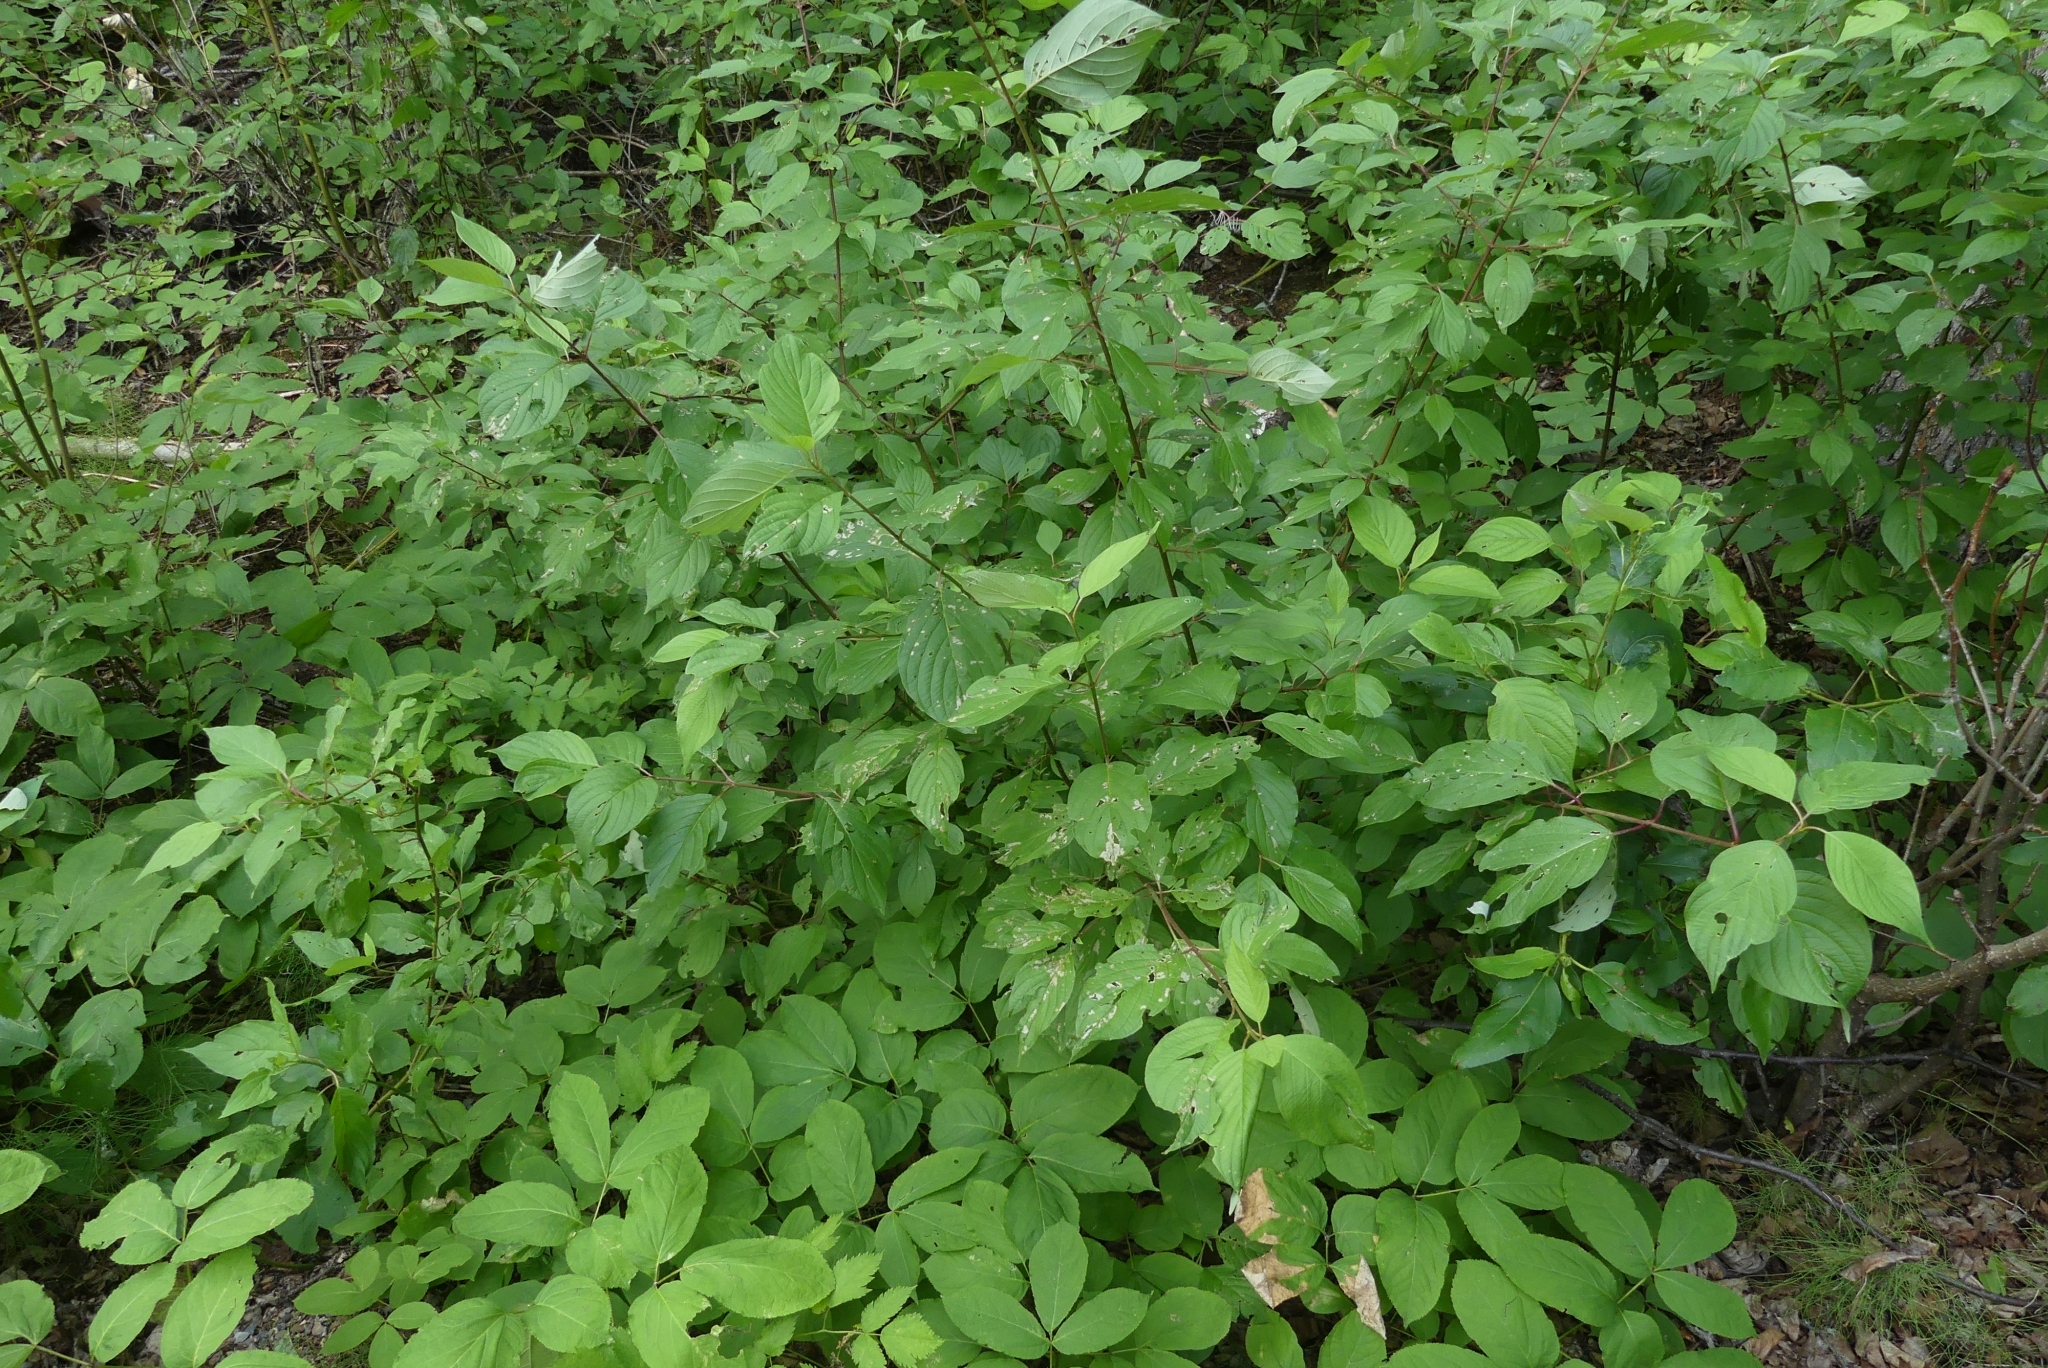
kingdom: Plantae
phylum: Tracheophyta
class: Magnoliopsida
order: Cornales
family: Cornaceae
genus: Cornus
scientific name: Cornus sericea
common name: Red-osier dogwood
